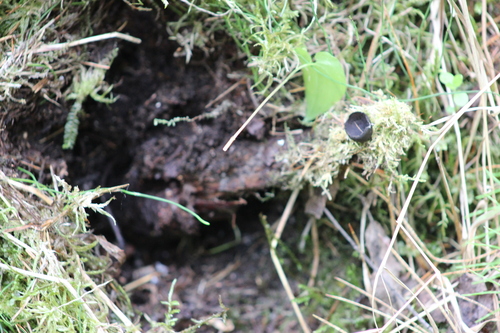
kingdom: Fungi
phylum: Ascomycota
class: Pezizomycetes
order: Pezizales
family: Sarcosomataceae
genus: Pseudoplectania
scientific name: Pseudoplectania nigrella
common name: Ebony cup
